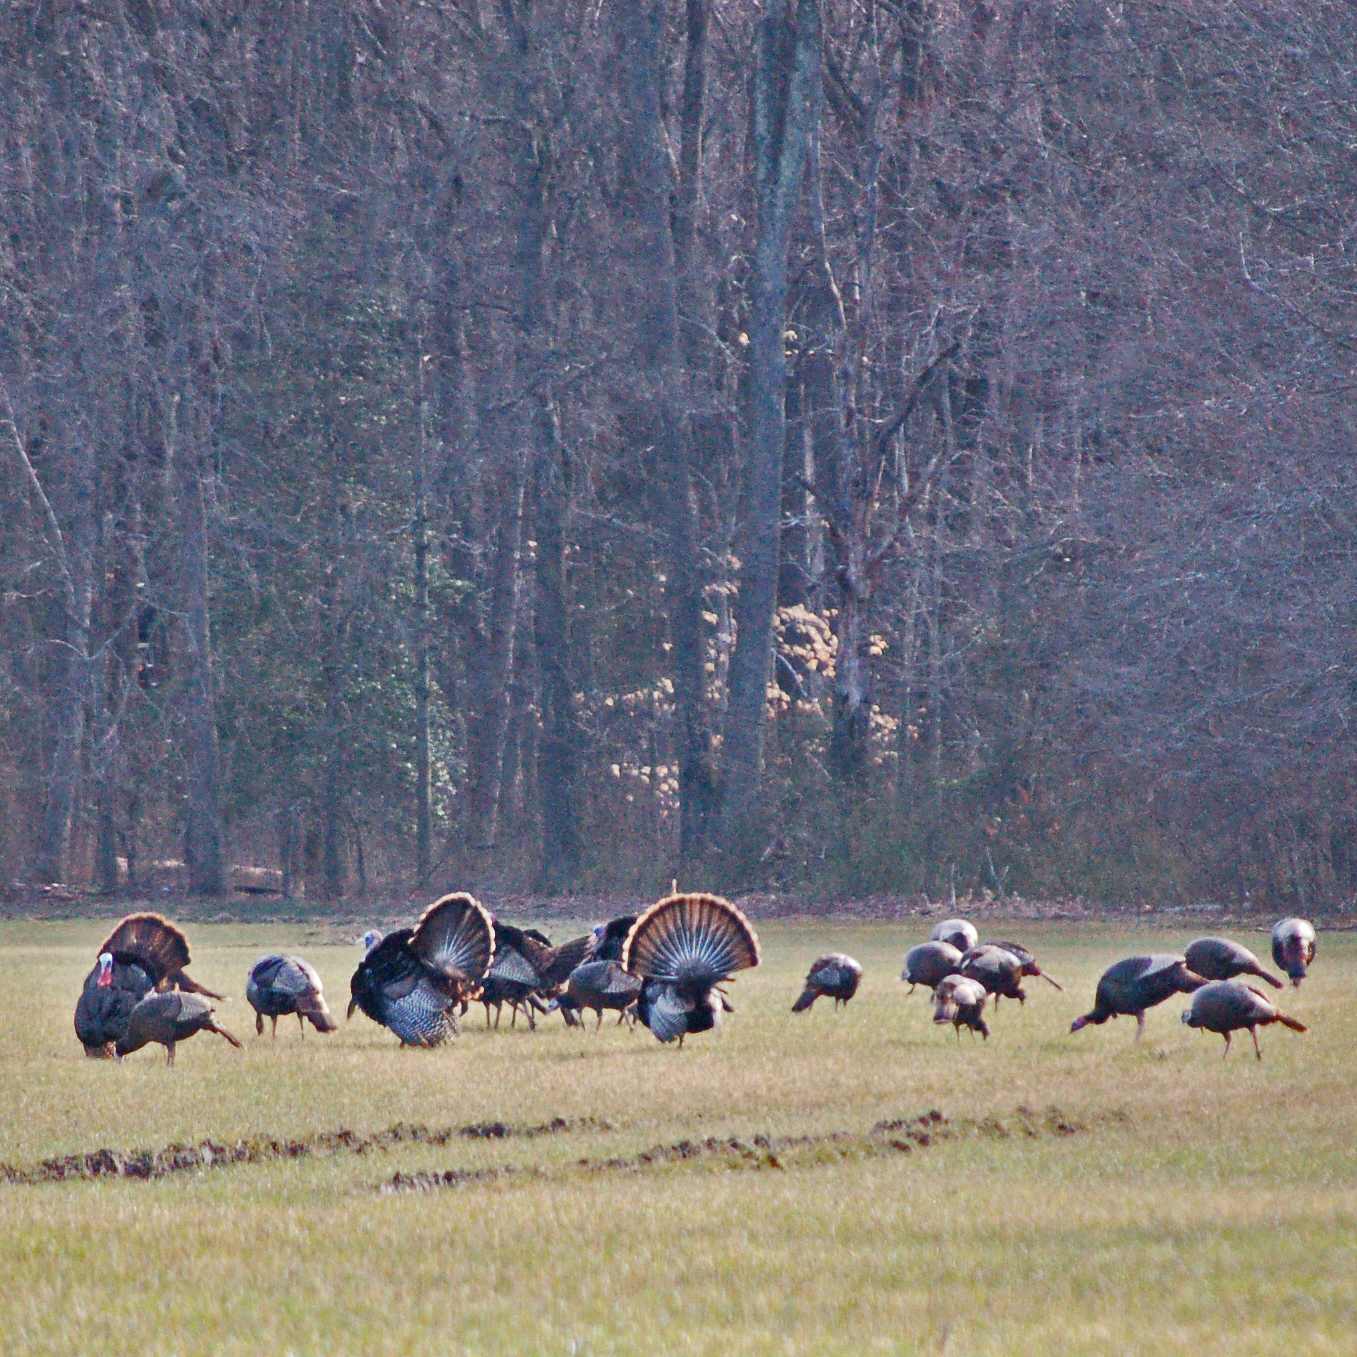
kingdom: Animalia
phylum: Chordata
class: Aves
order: Galliformes
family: Phasianidae
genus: Meleagris
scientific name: Meleagris gallopavo
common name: Wild turkey
